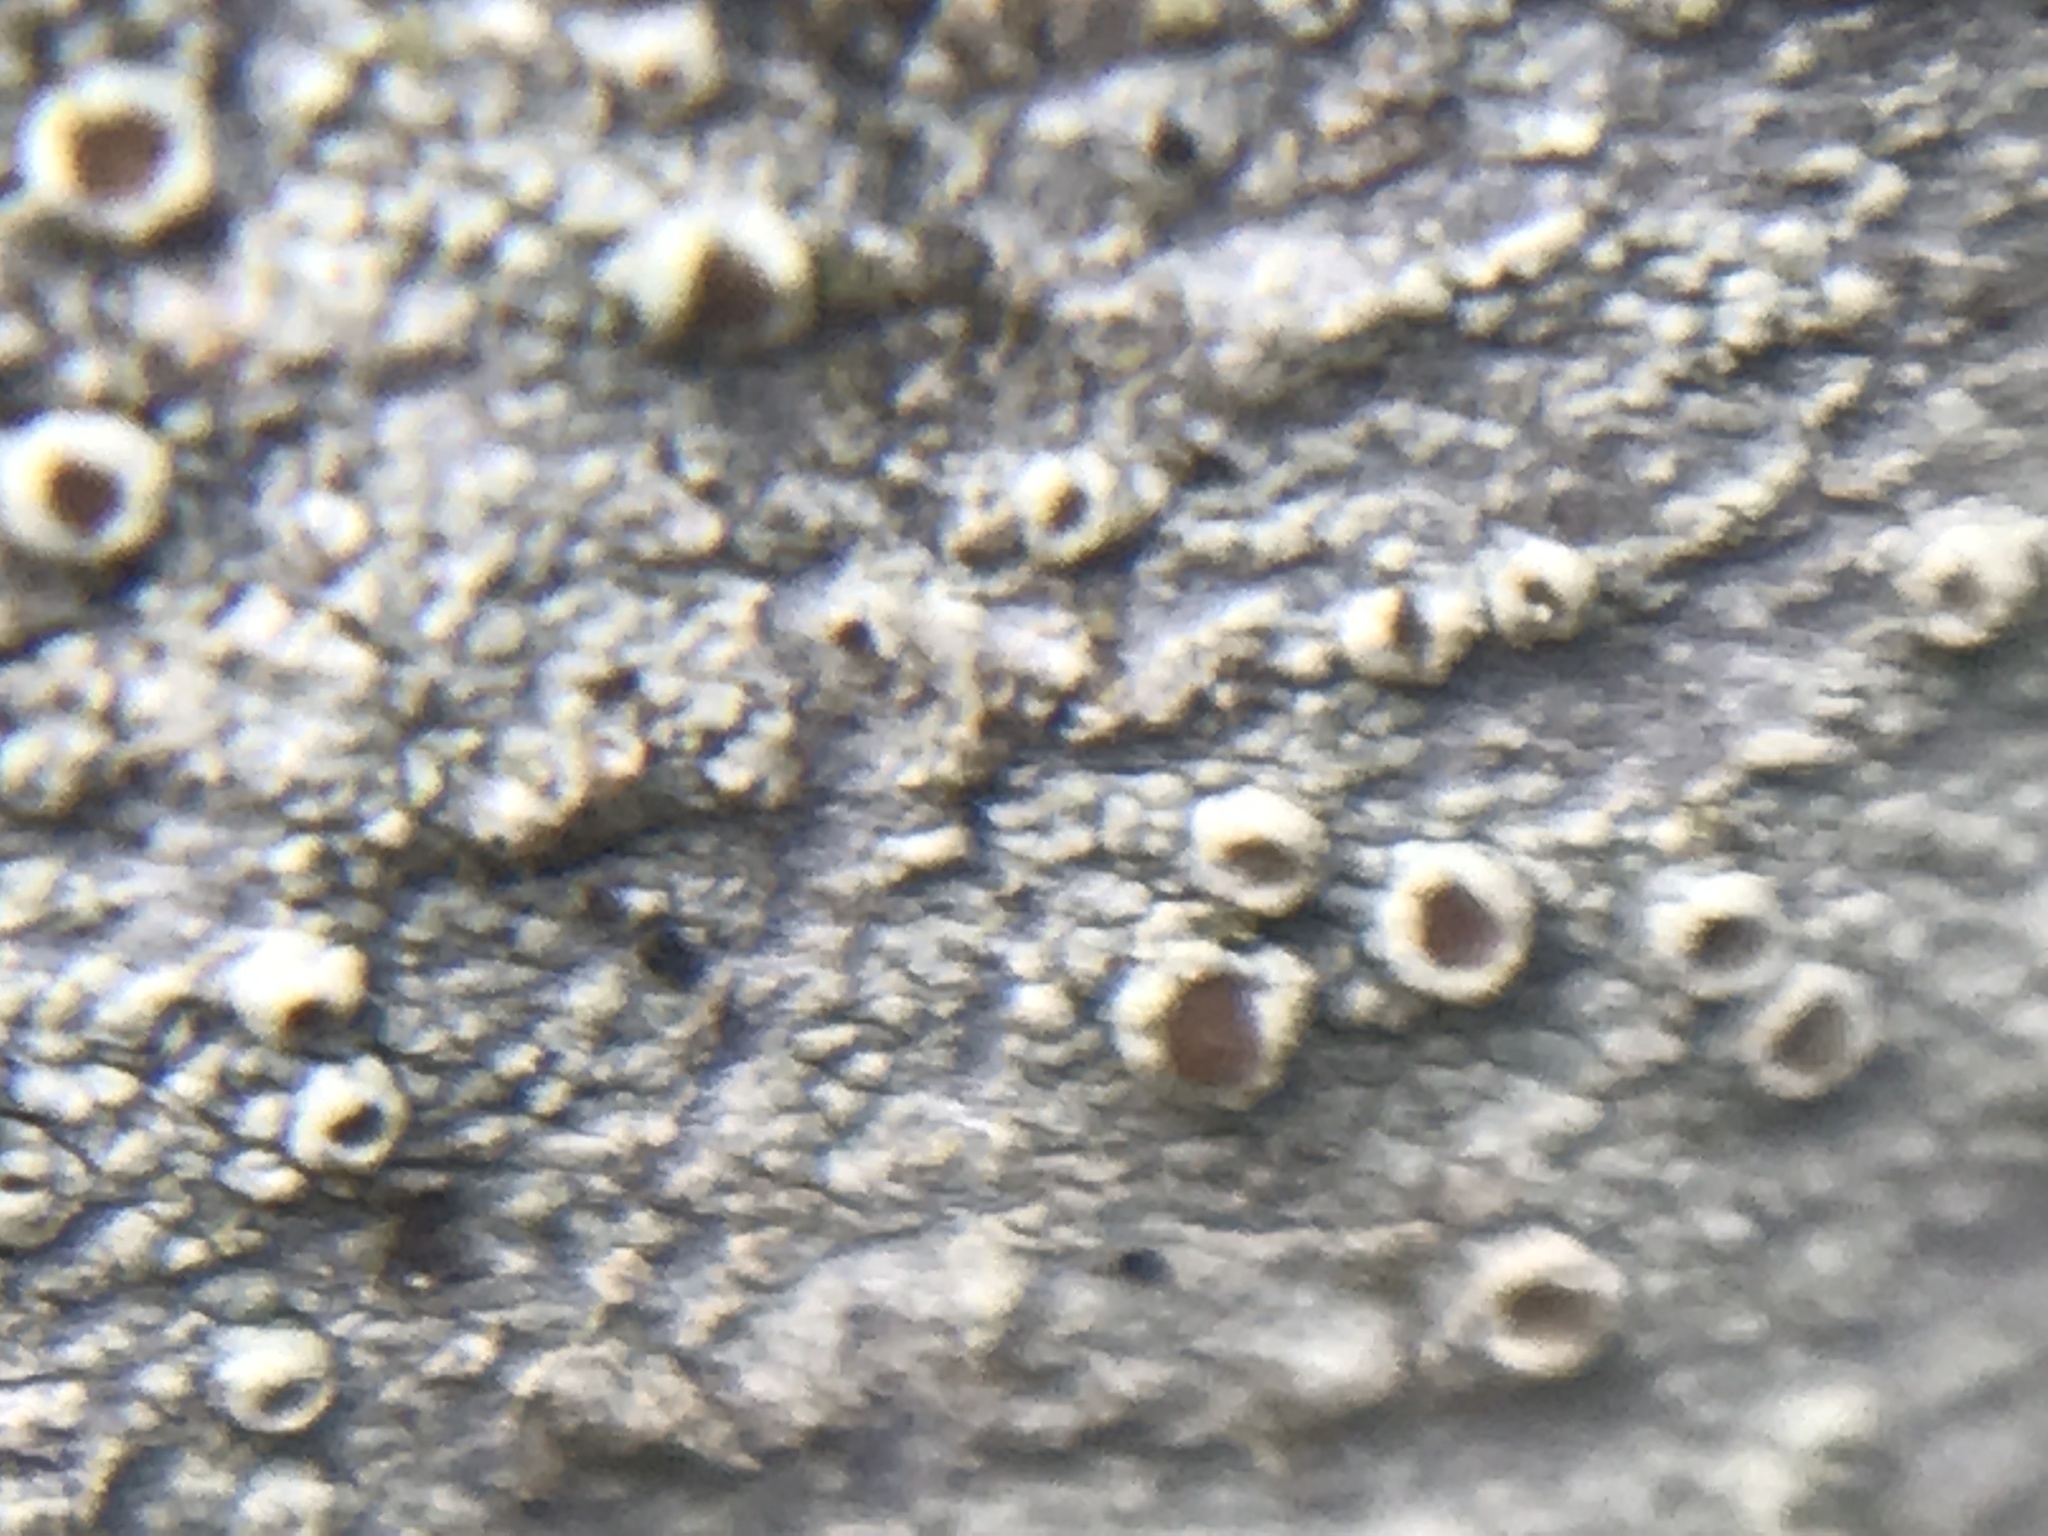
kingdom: Fungi
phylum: Ascomycota
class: Lecanoromycetes
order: Lecanorales
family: Lecanoraceae
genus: Lecanora
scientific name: Lecanora horiza
